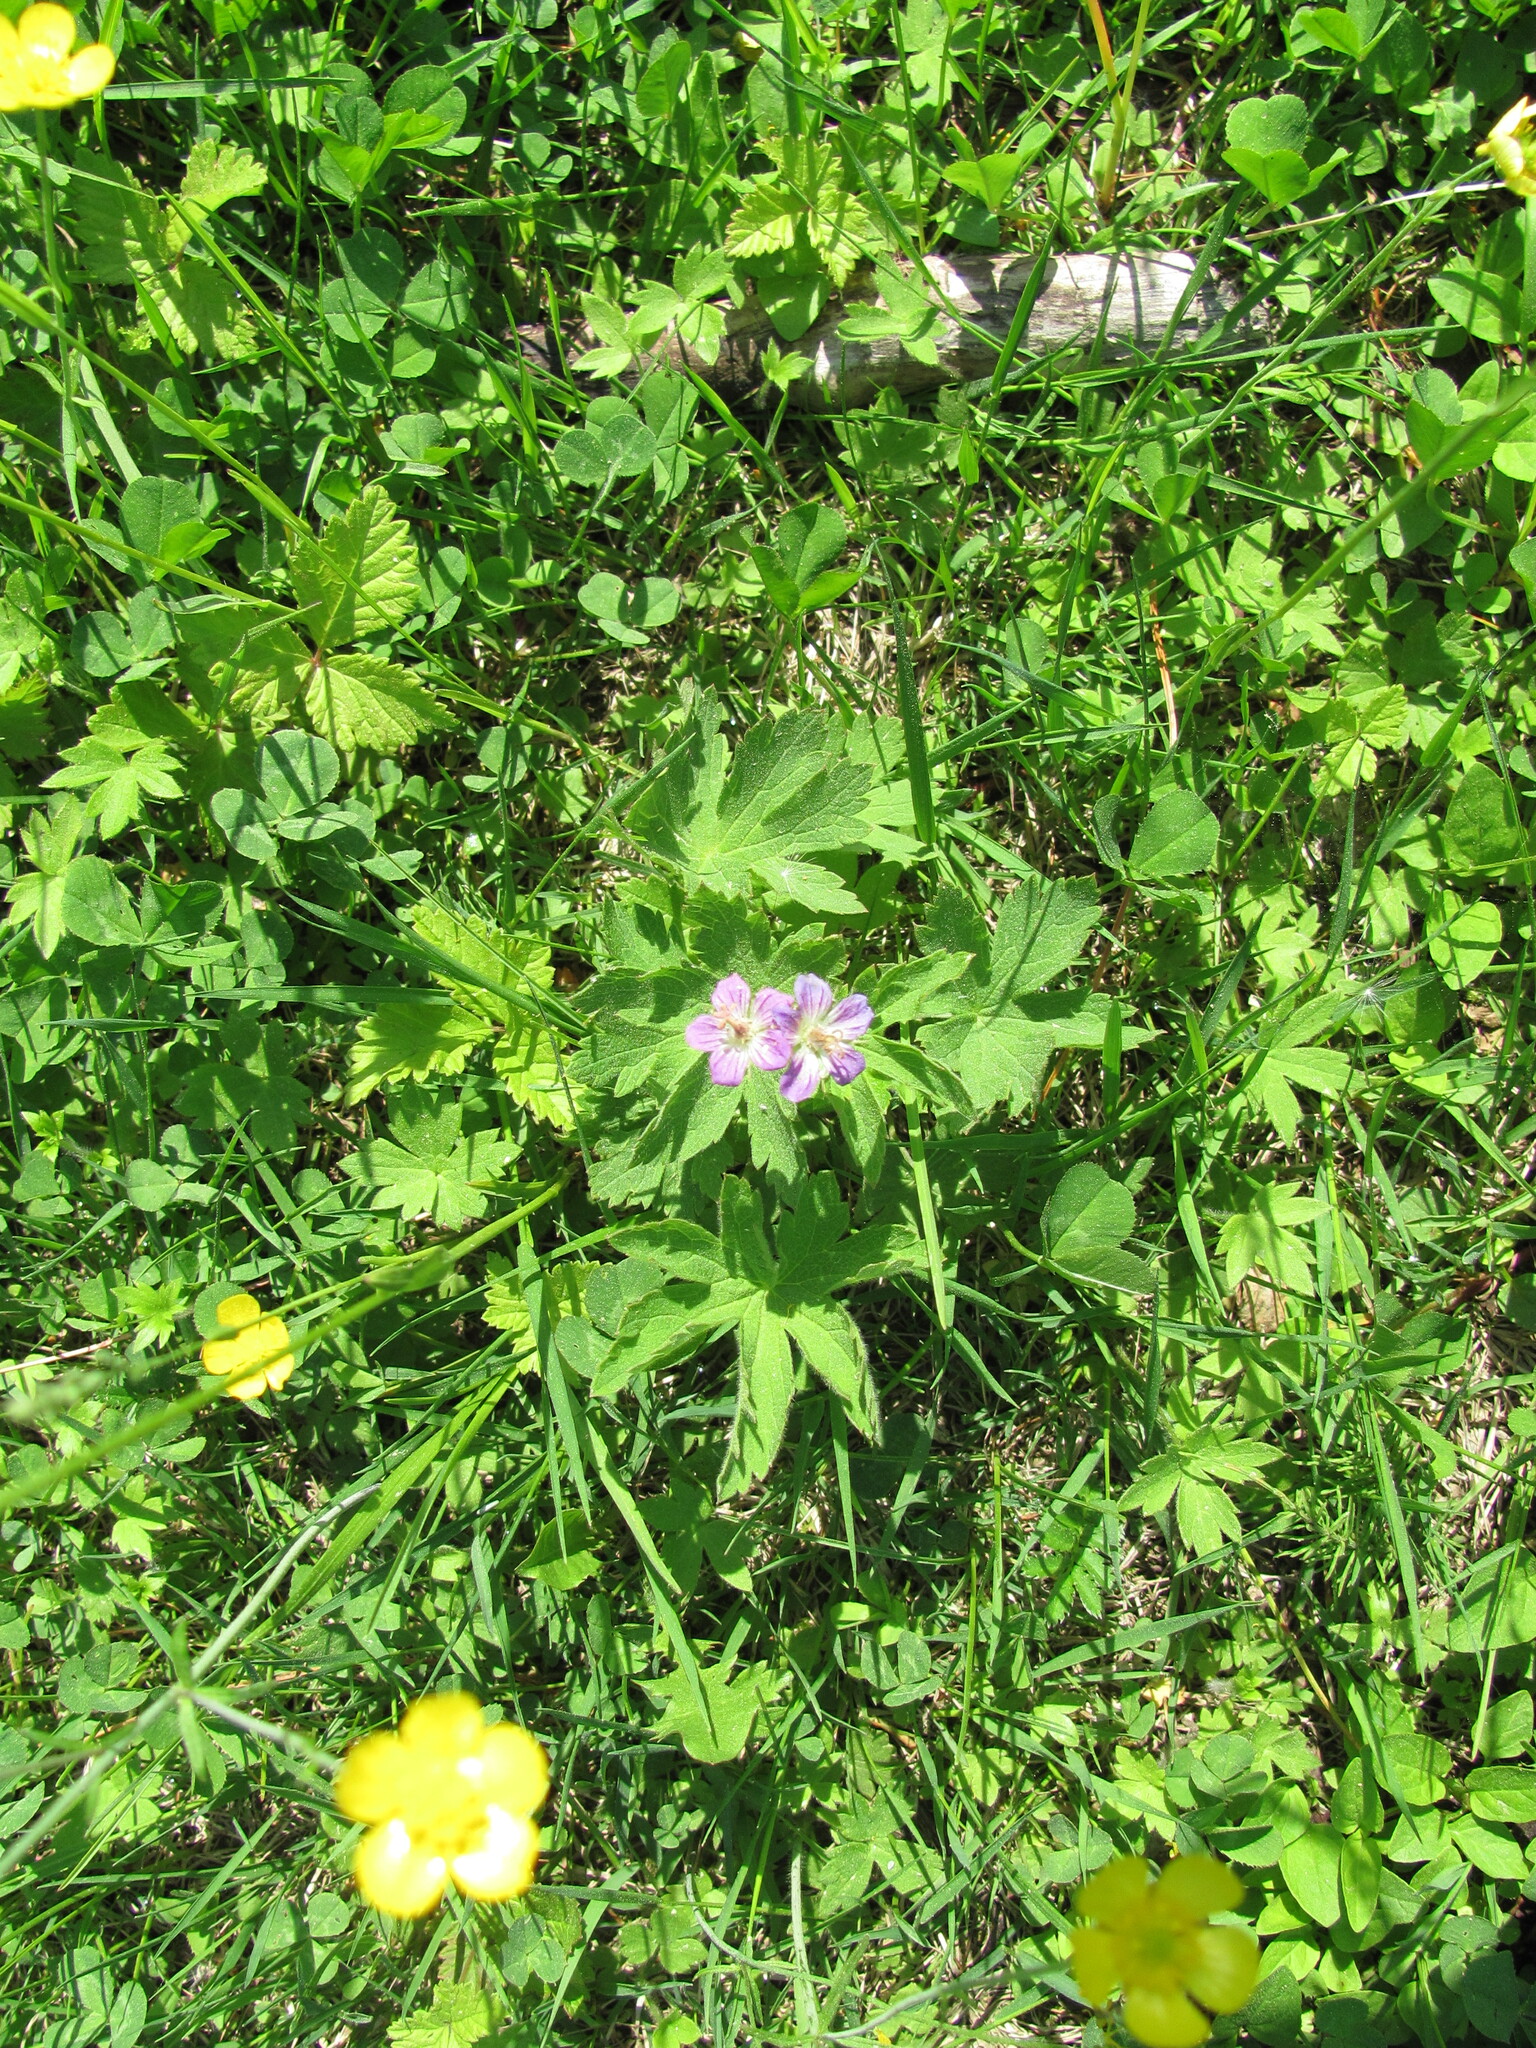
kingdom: Plantae
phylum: Tracheophyta
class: Magnoliopsida
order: Geraniales
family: Geraniaceae
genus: Geranium
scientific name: Geranium sylvaticum
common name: Wood crane's-bill
